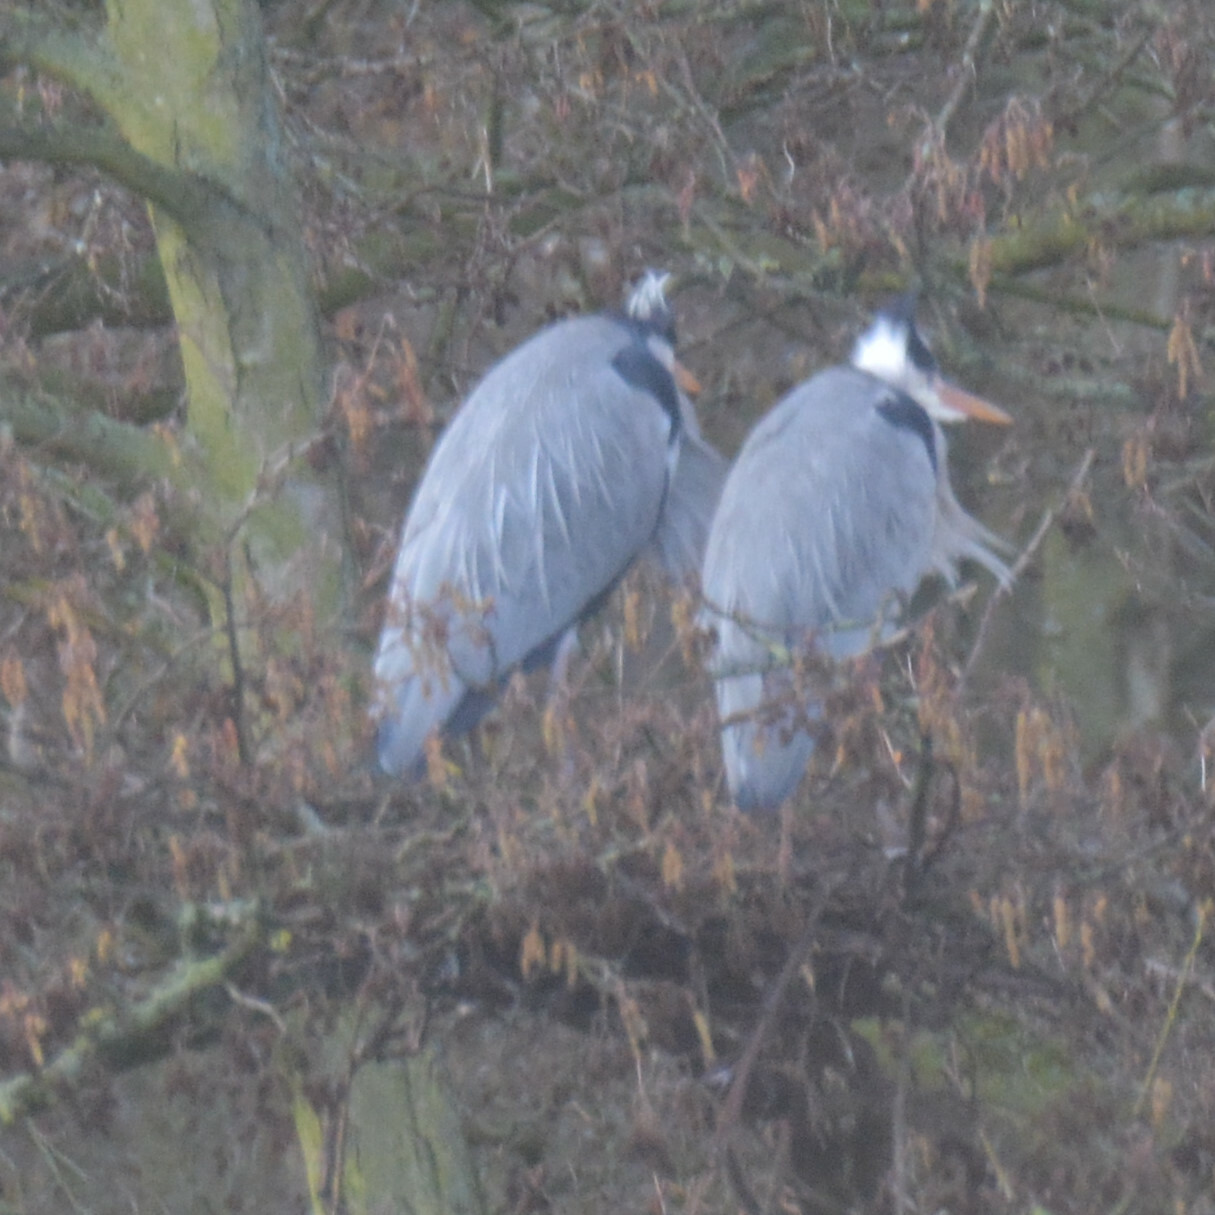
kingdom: Animalia
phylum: Chordata
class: Aves
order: Pelecaniformes
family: Ardeidae
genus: Ardea
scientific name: Ardea cinerea
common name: Grey heron
